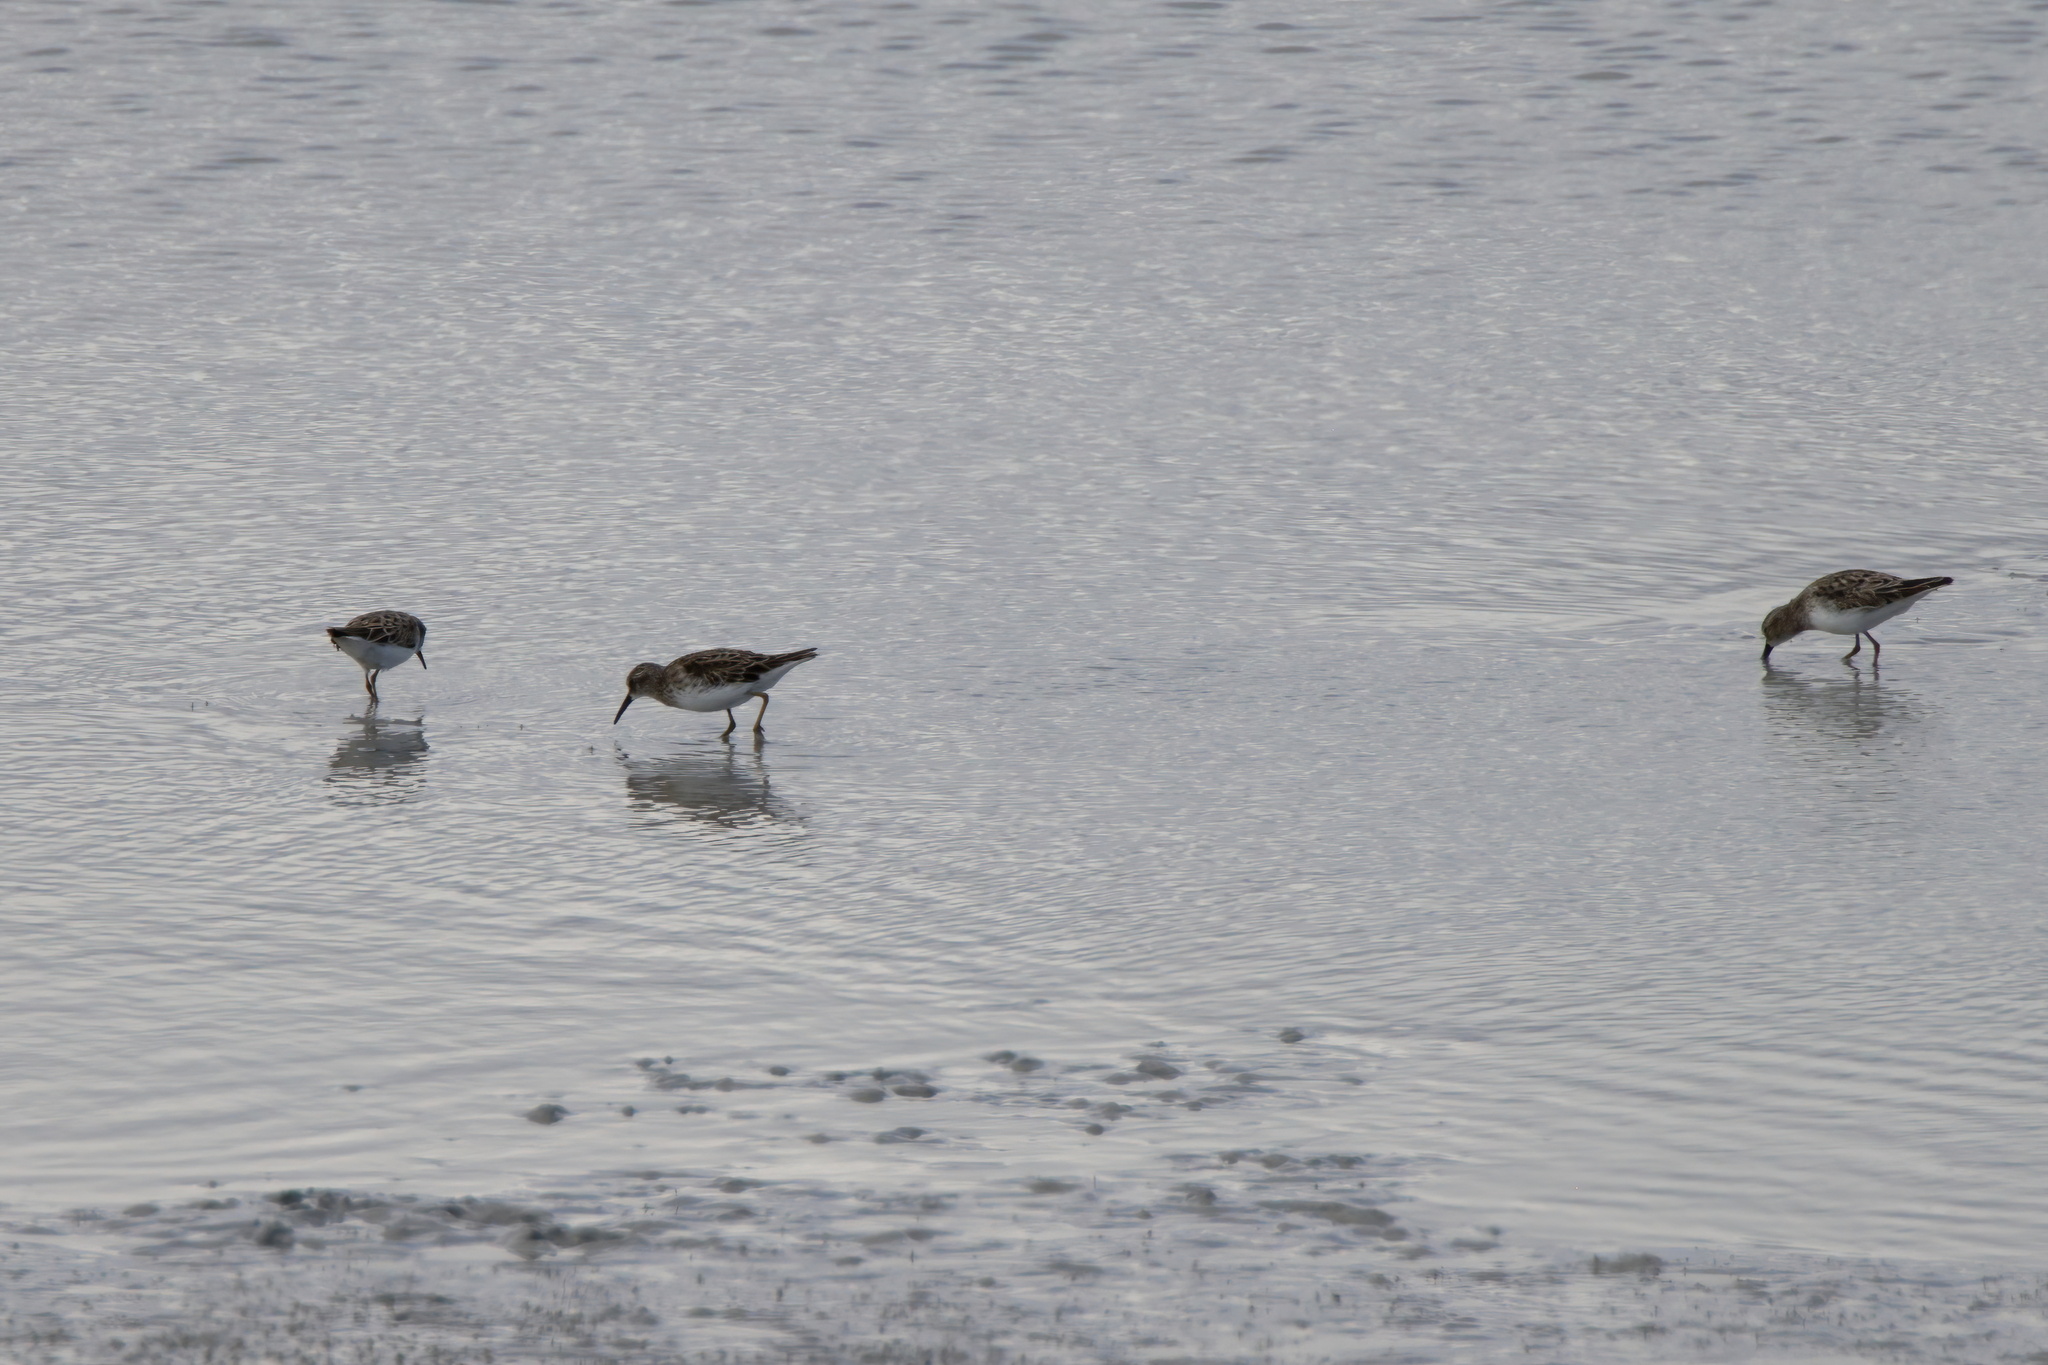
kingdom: Animalia
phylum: Chordata
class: Aves
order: Charadriiformes
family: Scolopacidae
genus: Calidris
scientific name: Calidris minutilla
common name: Least sandpiper
